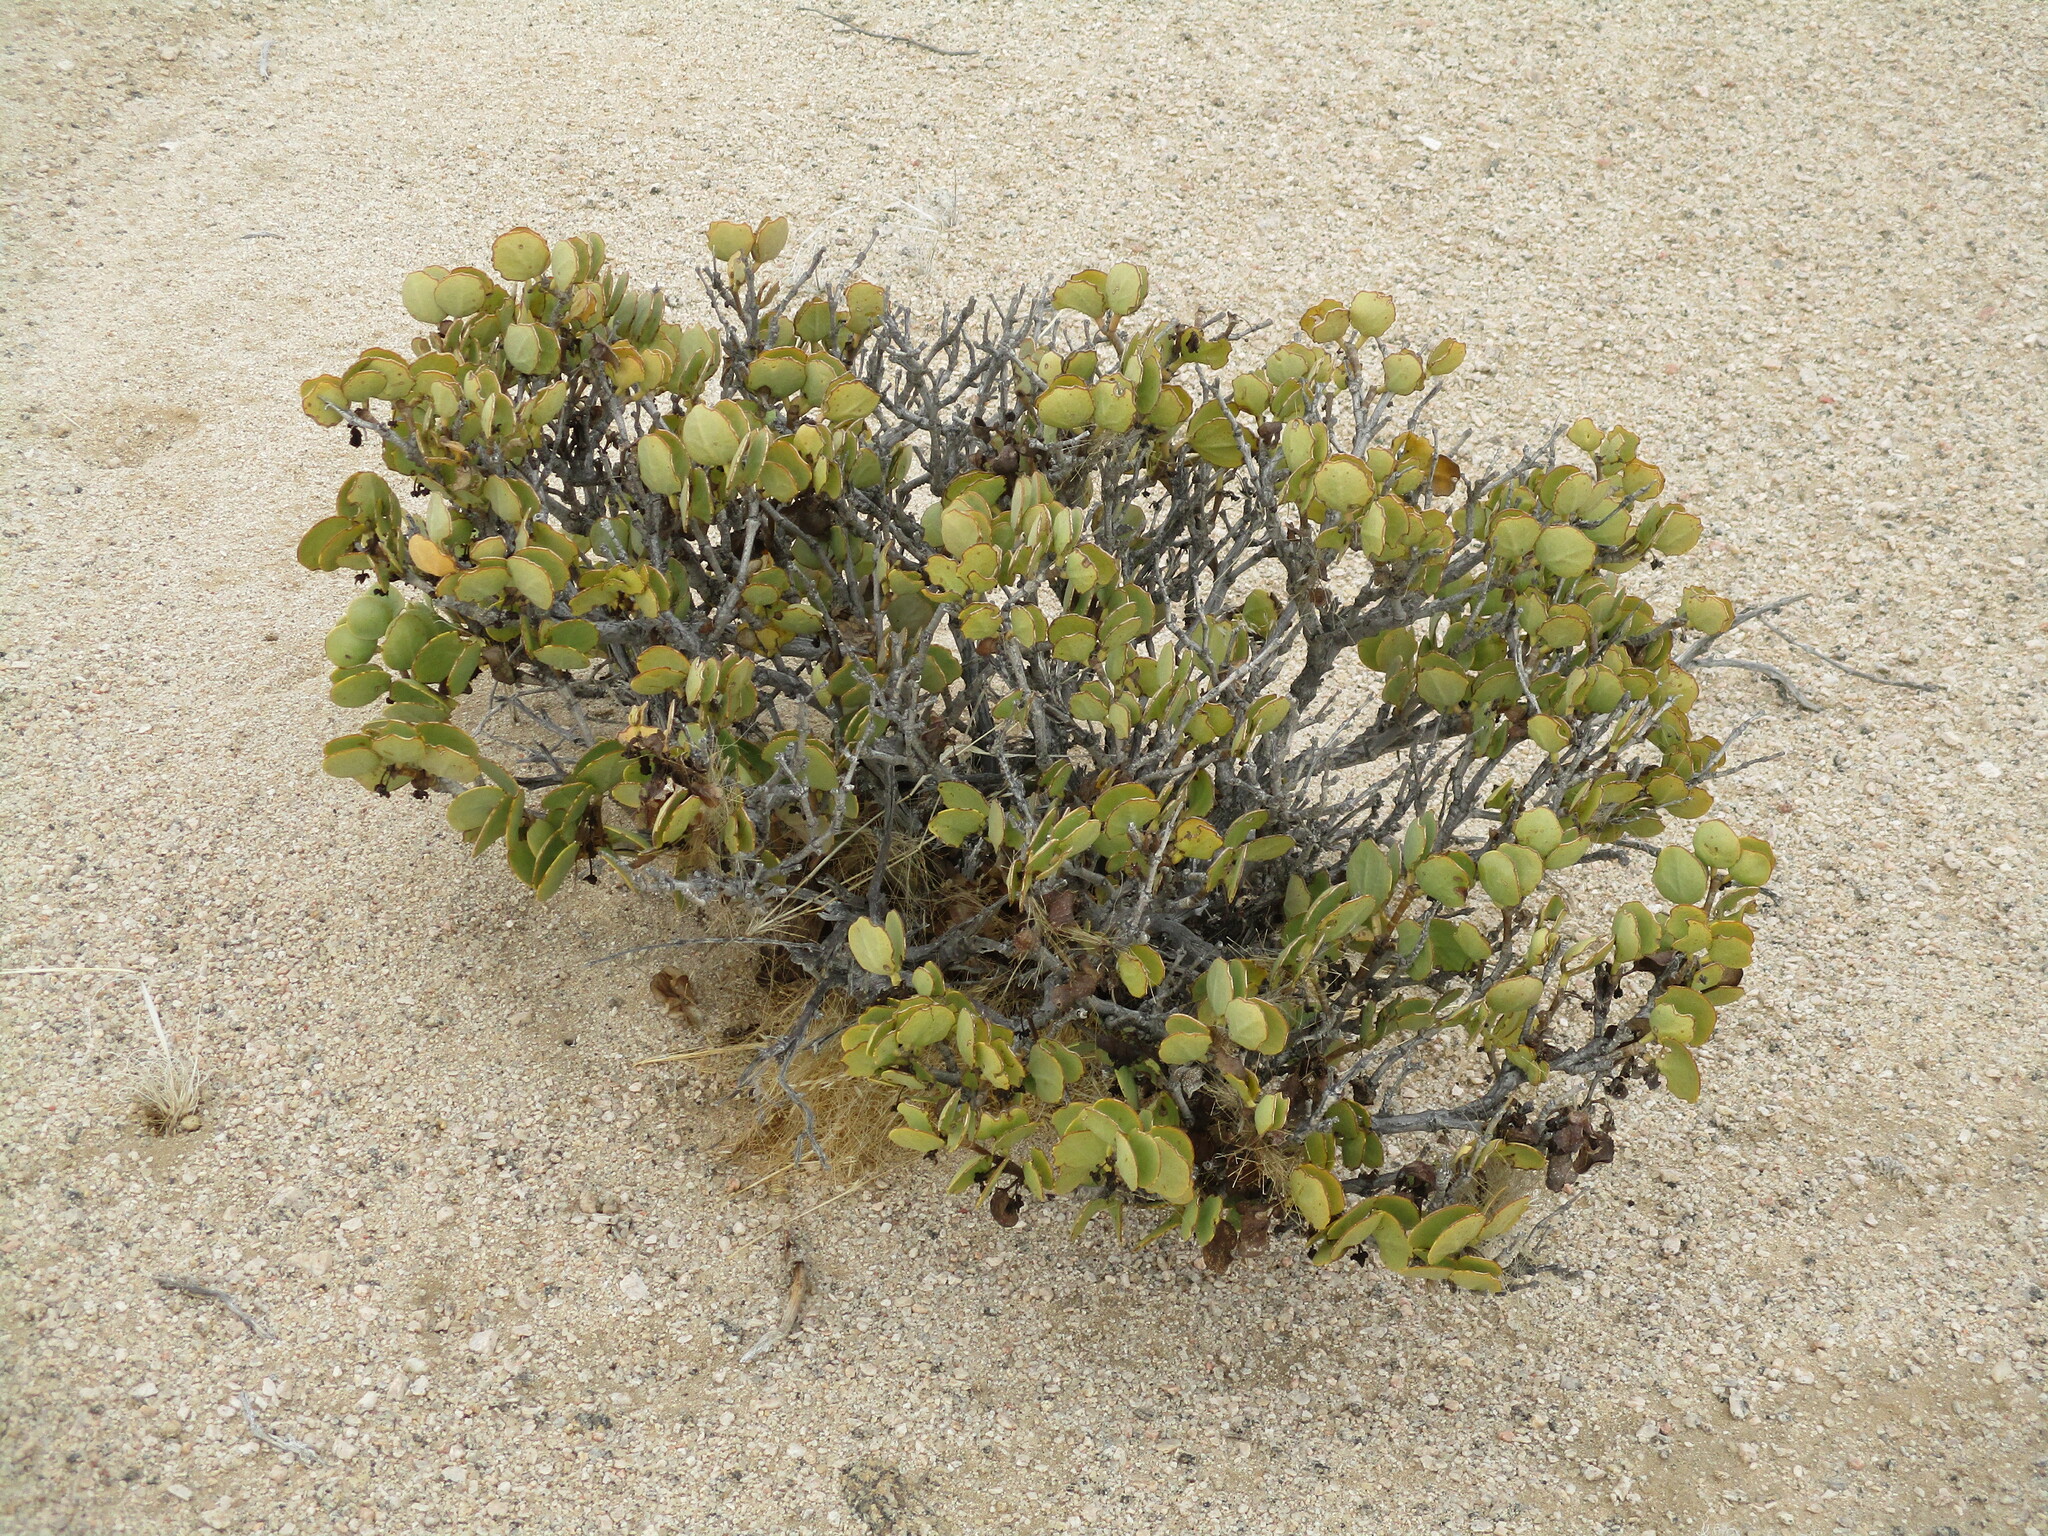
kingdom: Plantae
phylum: Tracheophyta
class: Magnoliopsida
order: Zygophyllales
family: Zygophyllaceae
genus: Tetraena
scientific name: Tetraena stapfii
